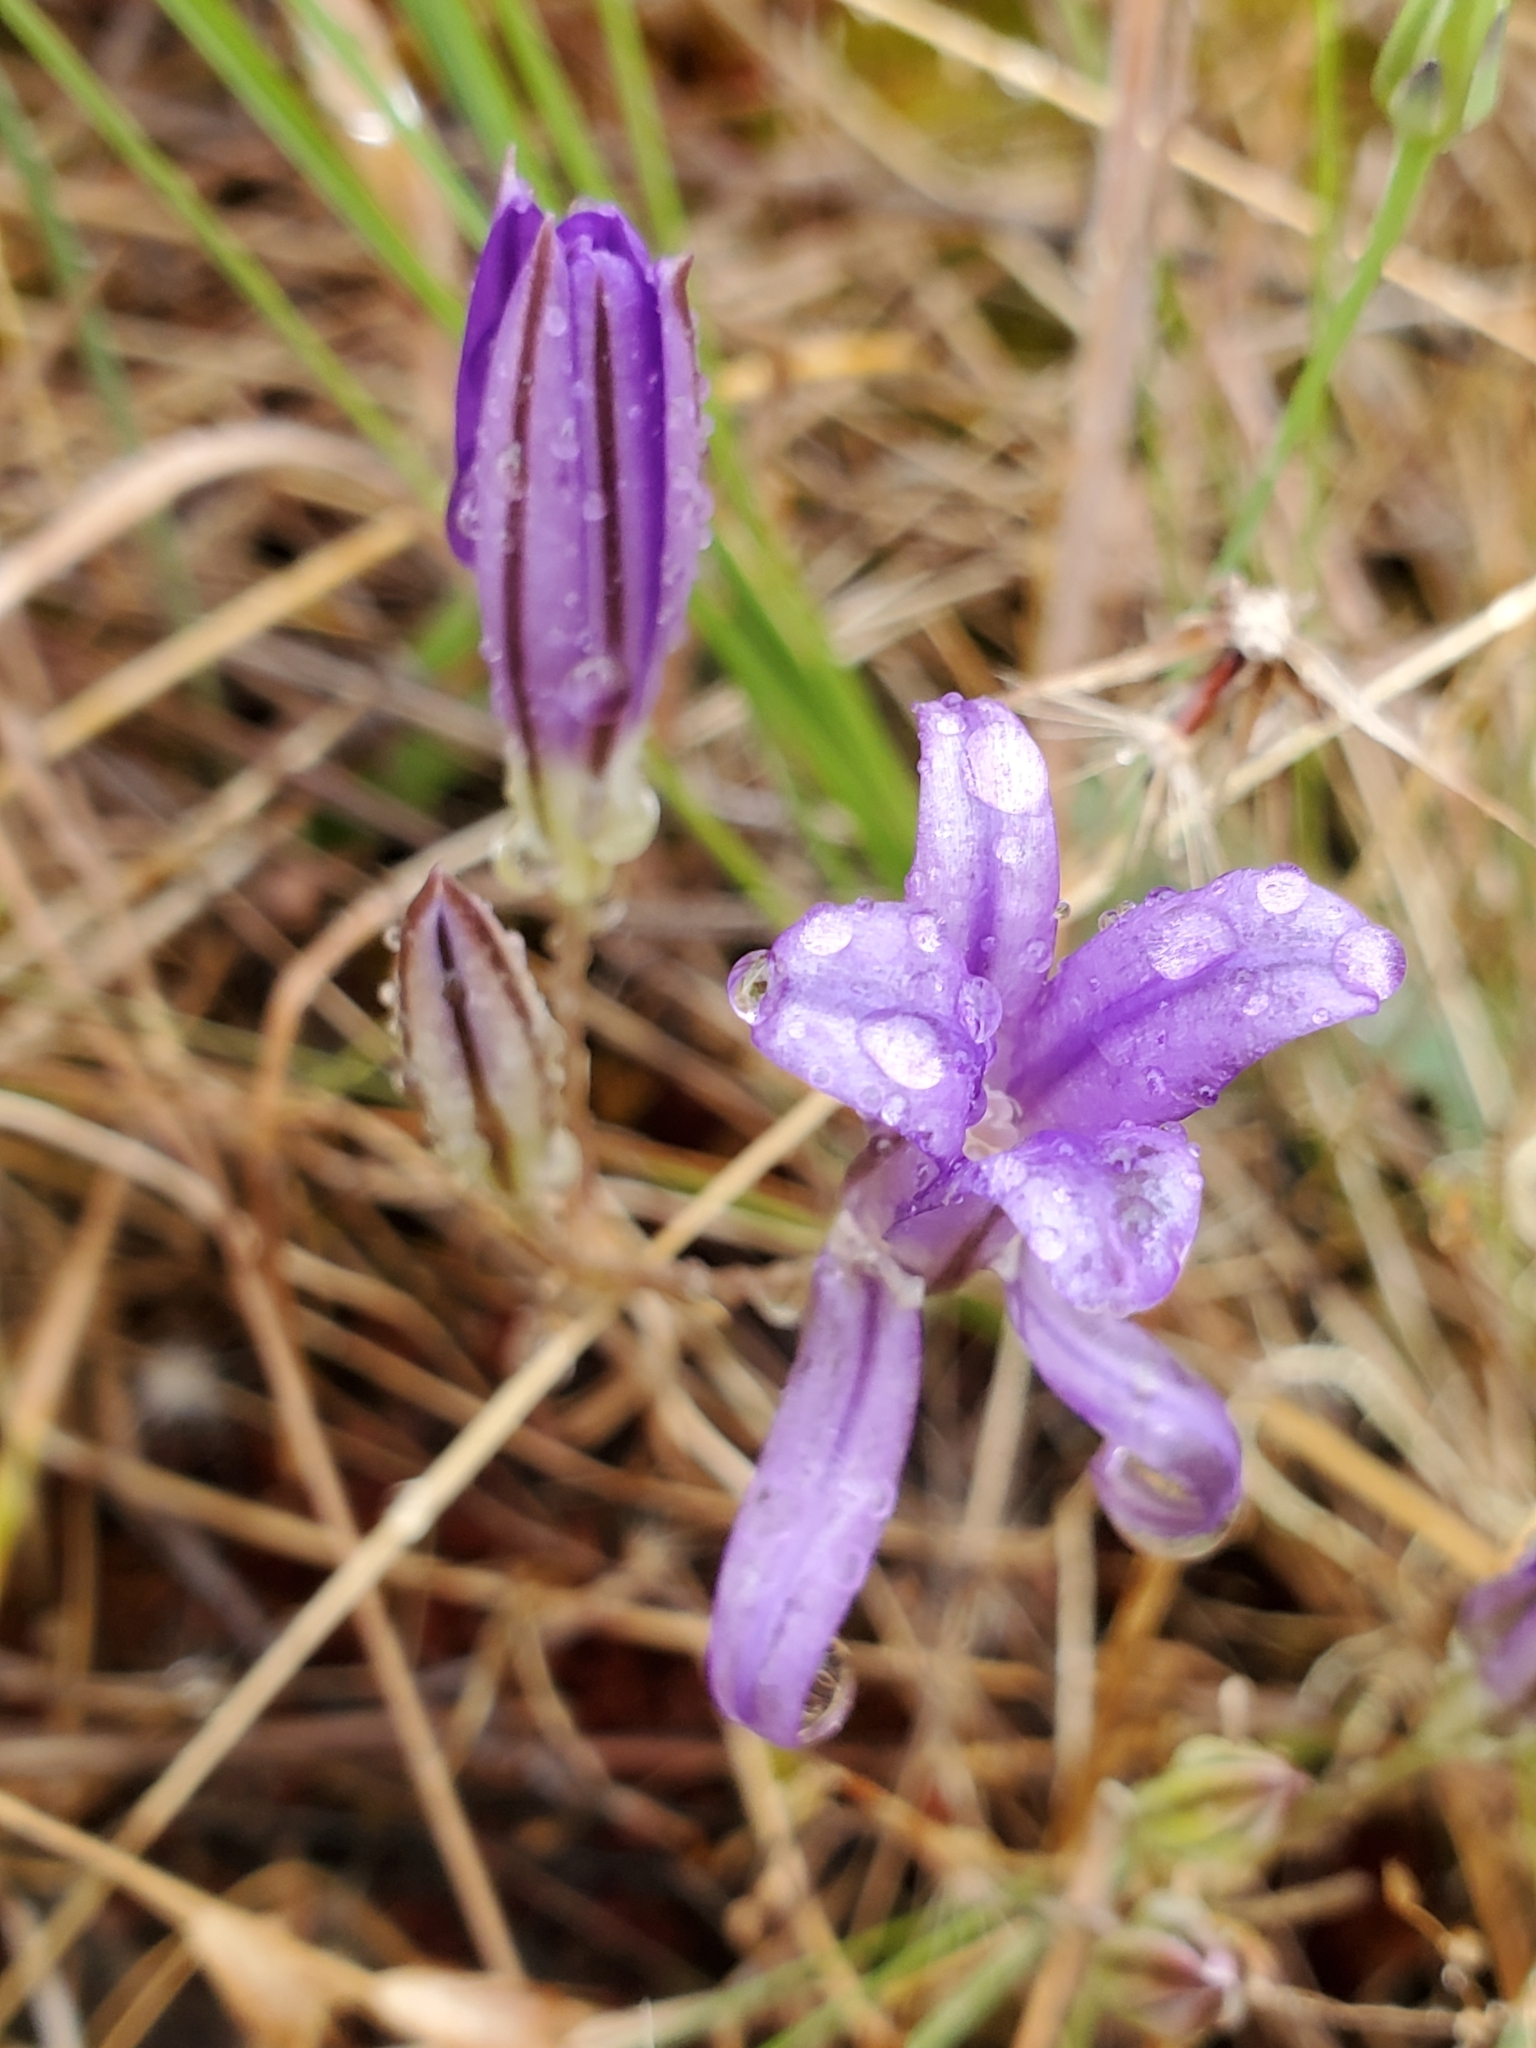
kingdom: Plantae
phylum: Tracheophyta
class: Liliopsida
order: Asparagales
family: Asparagaceae
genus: Brodiaea
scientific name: Brodiaea coronaria
